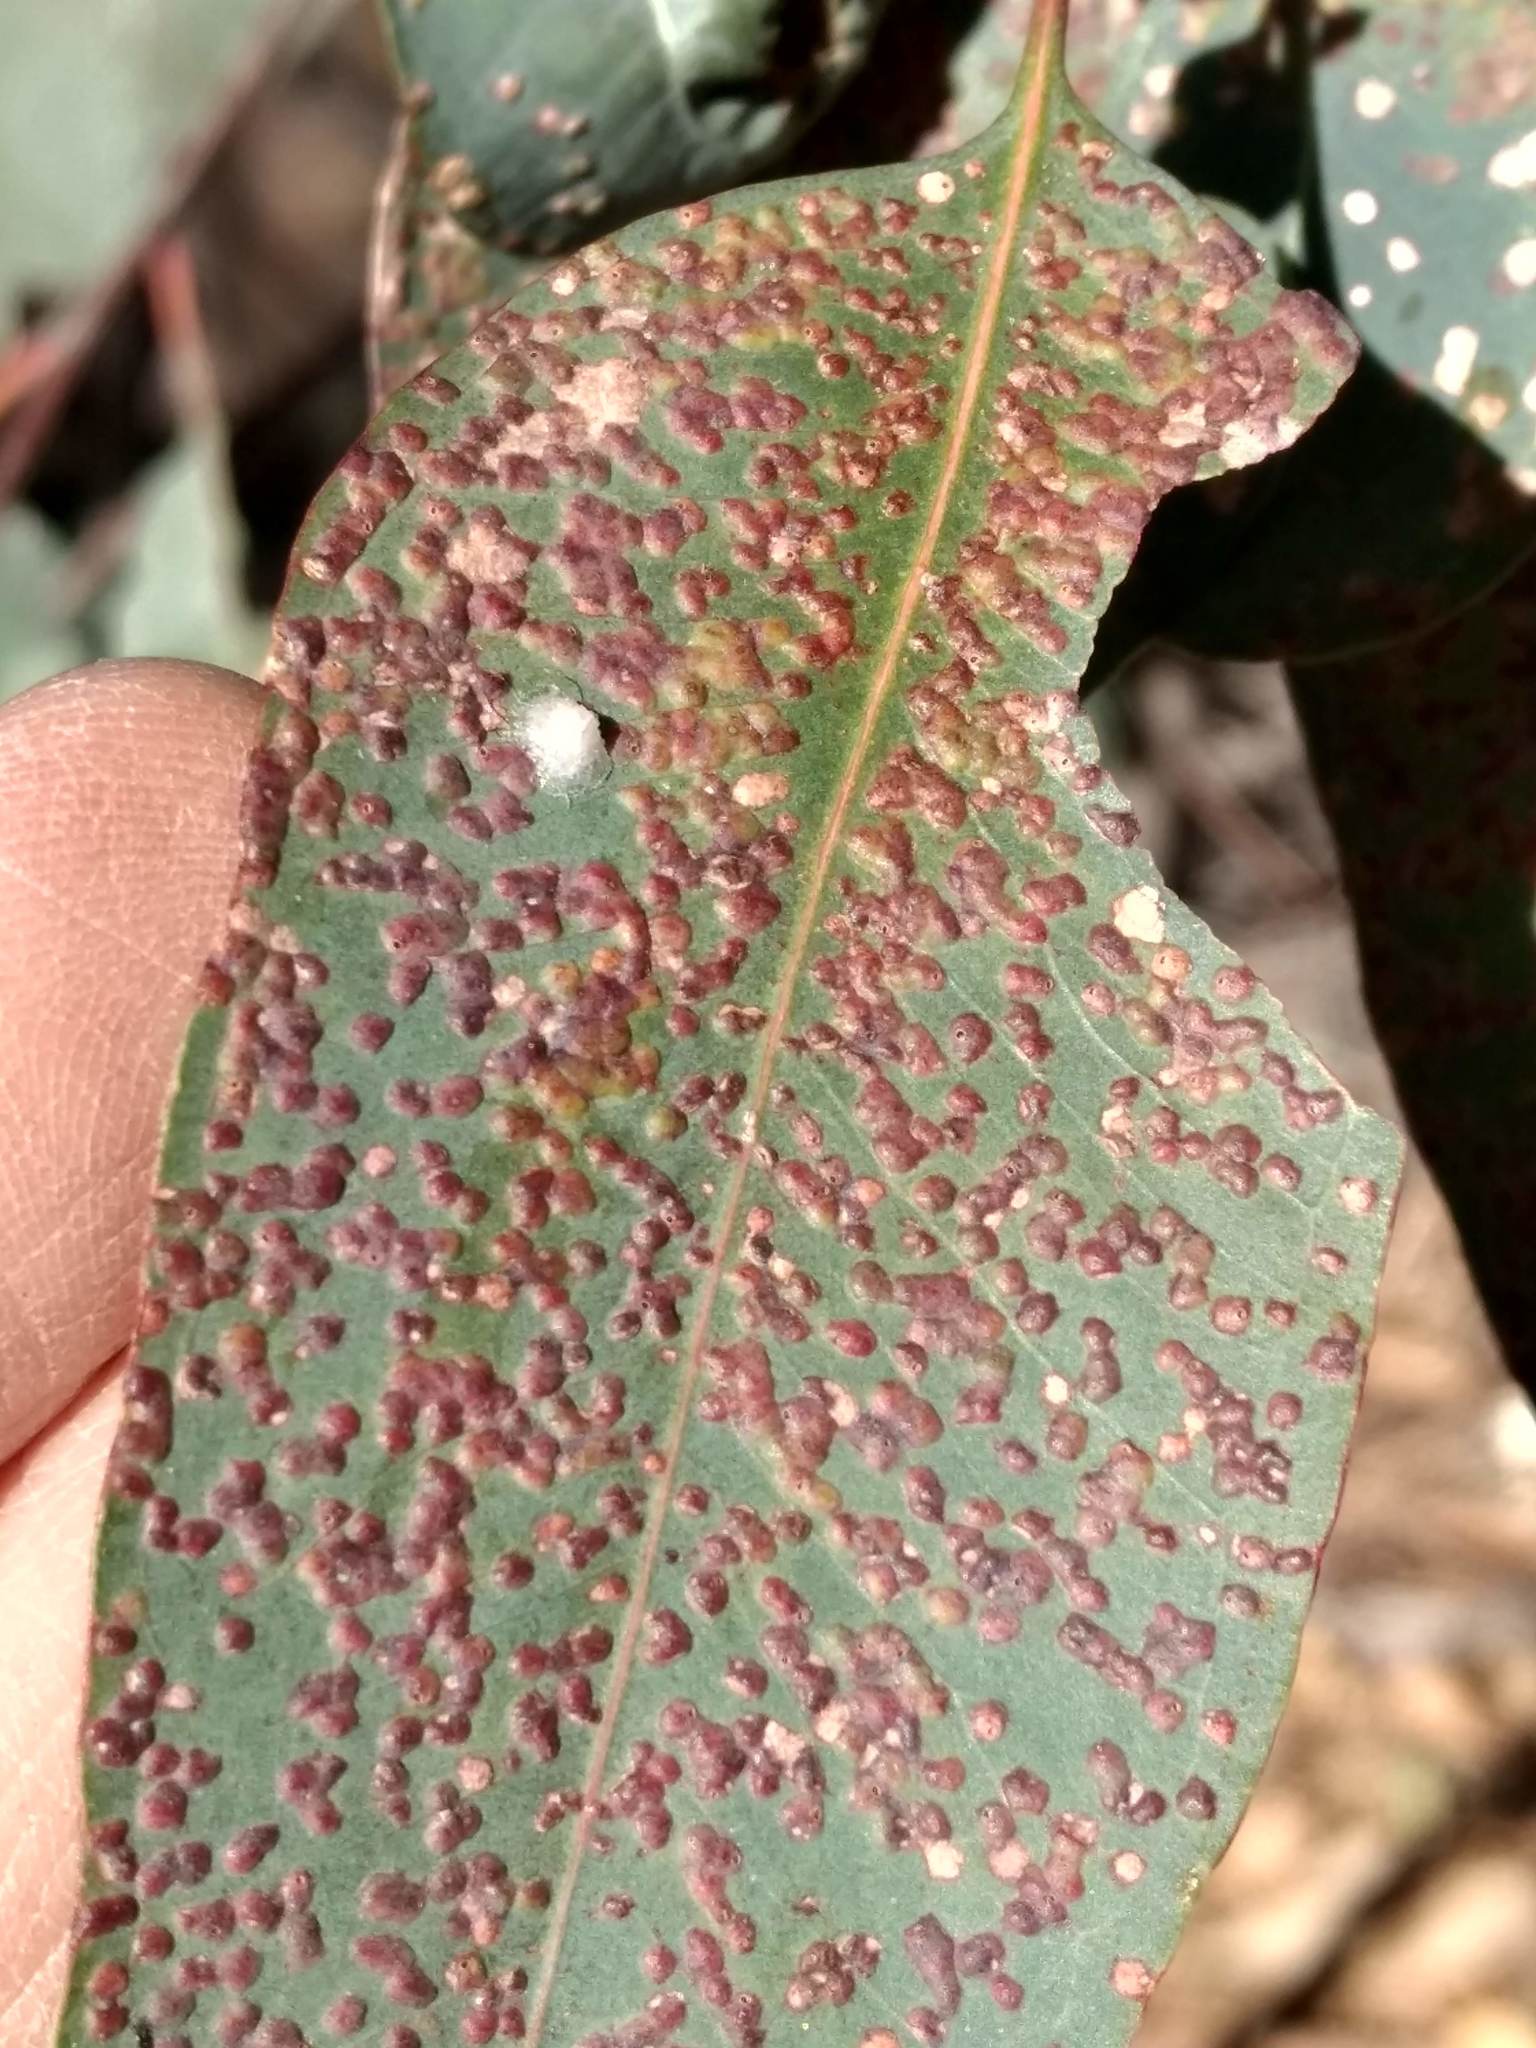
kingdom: Animalia
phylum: Arthropoda
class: Insecta
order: Hymenoptera
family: Eulophidae
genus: Ophelimus
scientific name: Ophelimus maskelli
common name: Gall wasp
